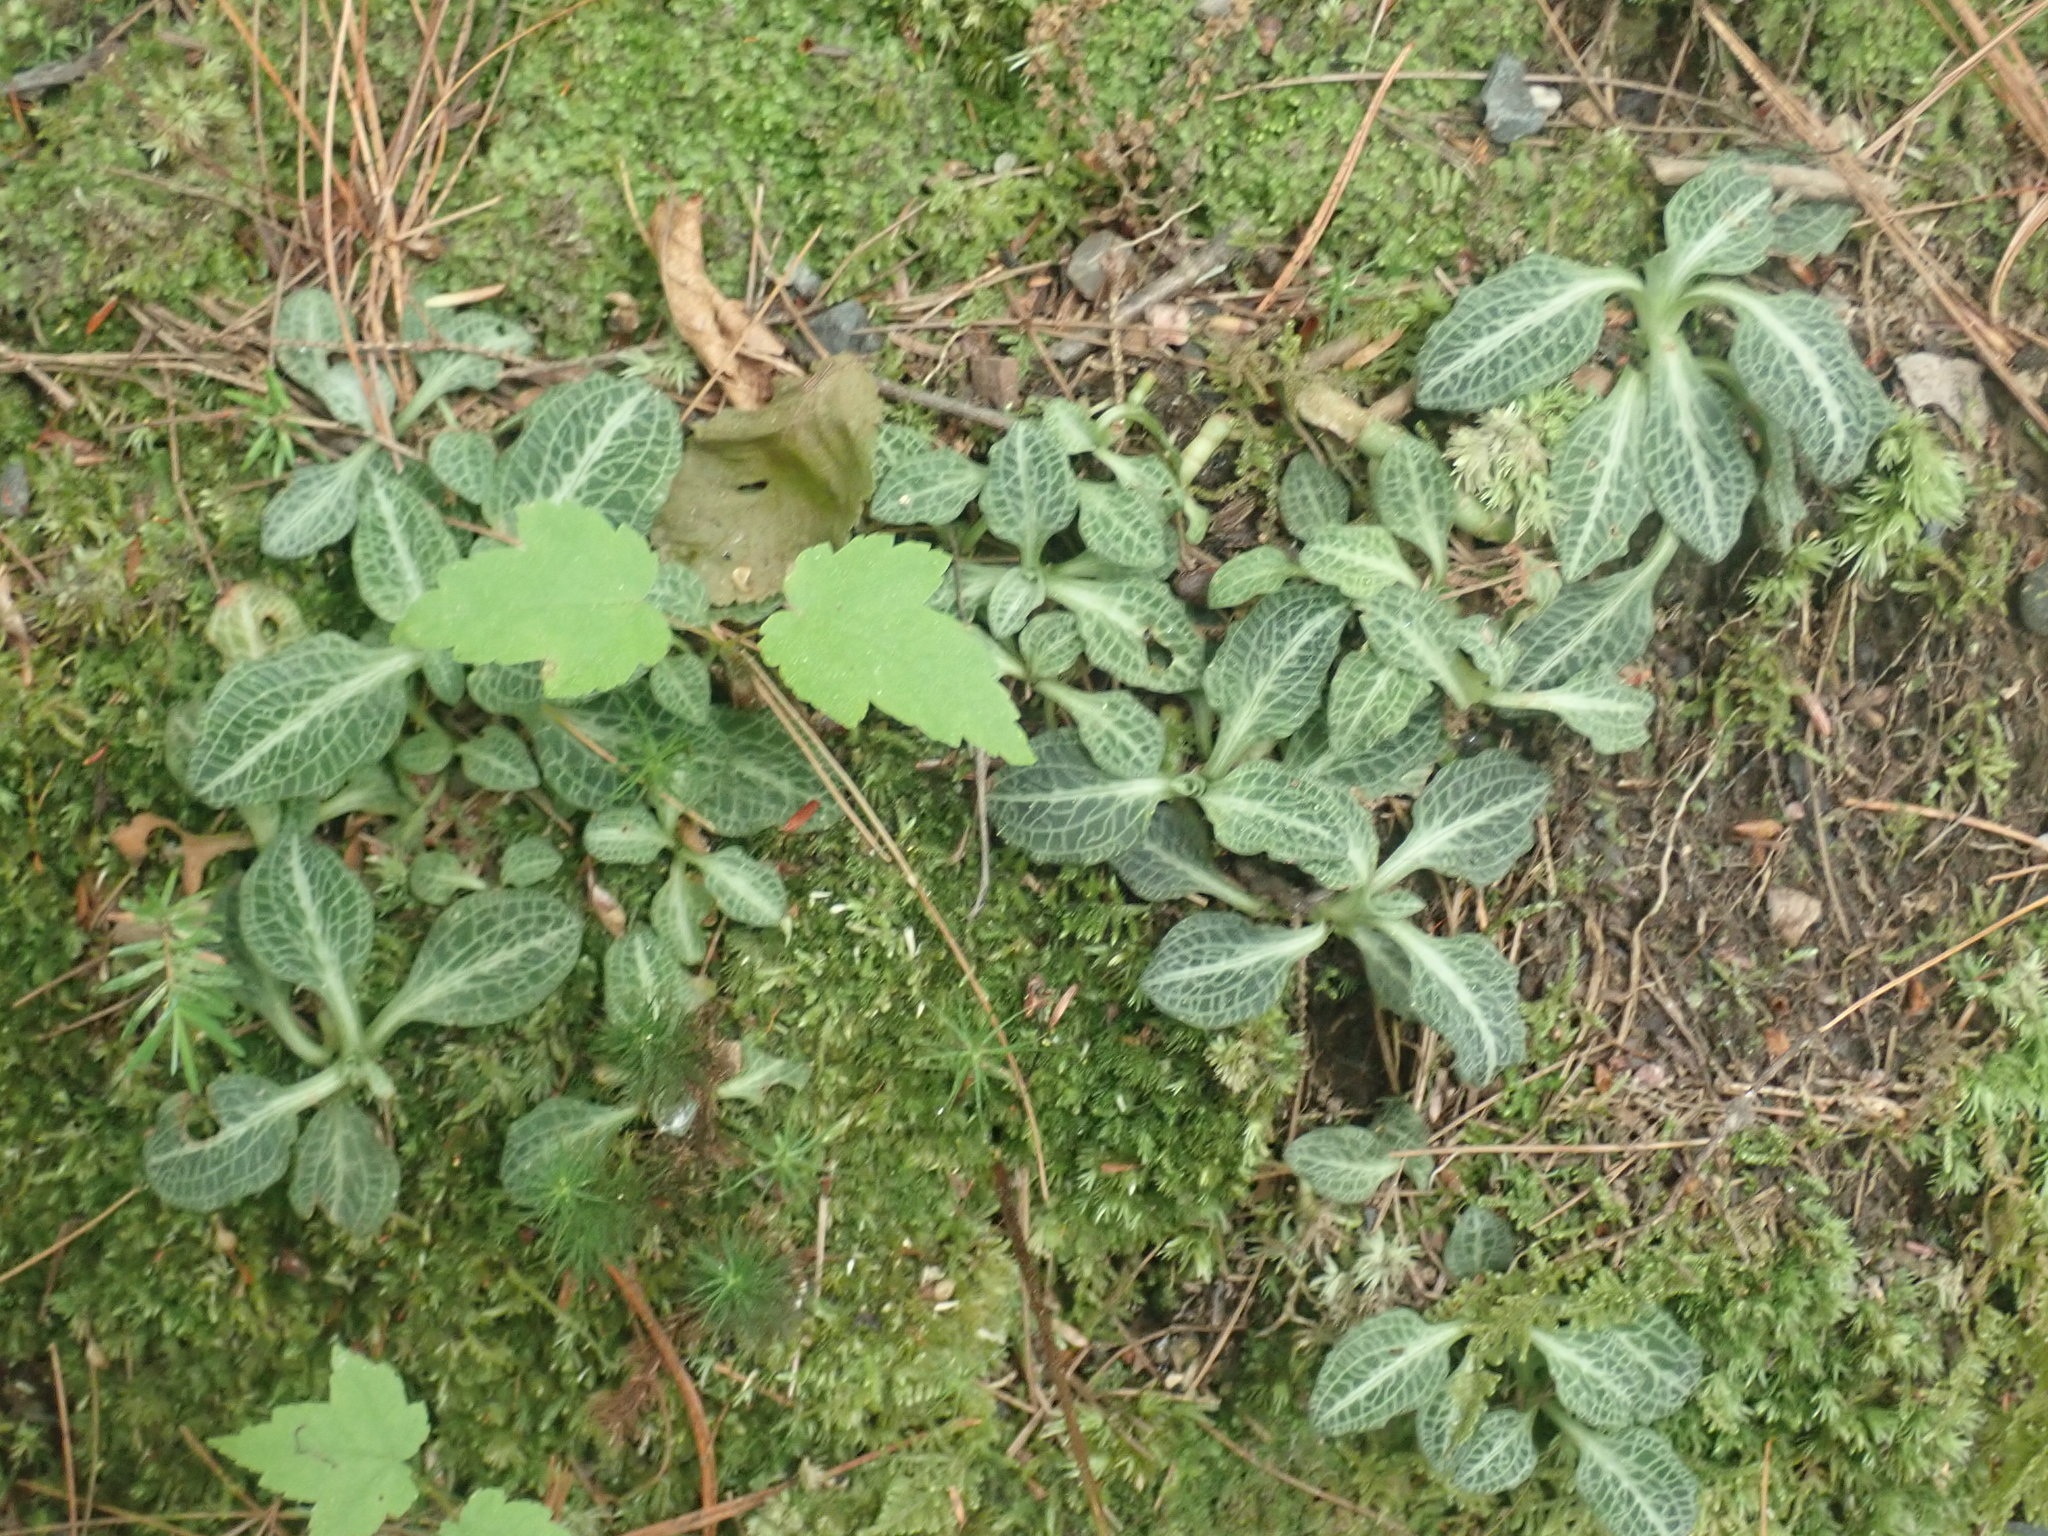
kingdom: Plantae
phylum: Tracheophyta
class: Liliopsida
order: Asparagales
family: Orchidaceae
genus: Goodyera
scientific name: Goodyera pubescens
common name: Downy rattlesnake-plantain
